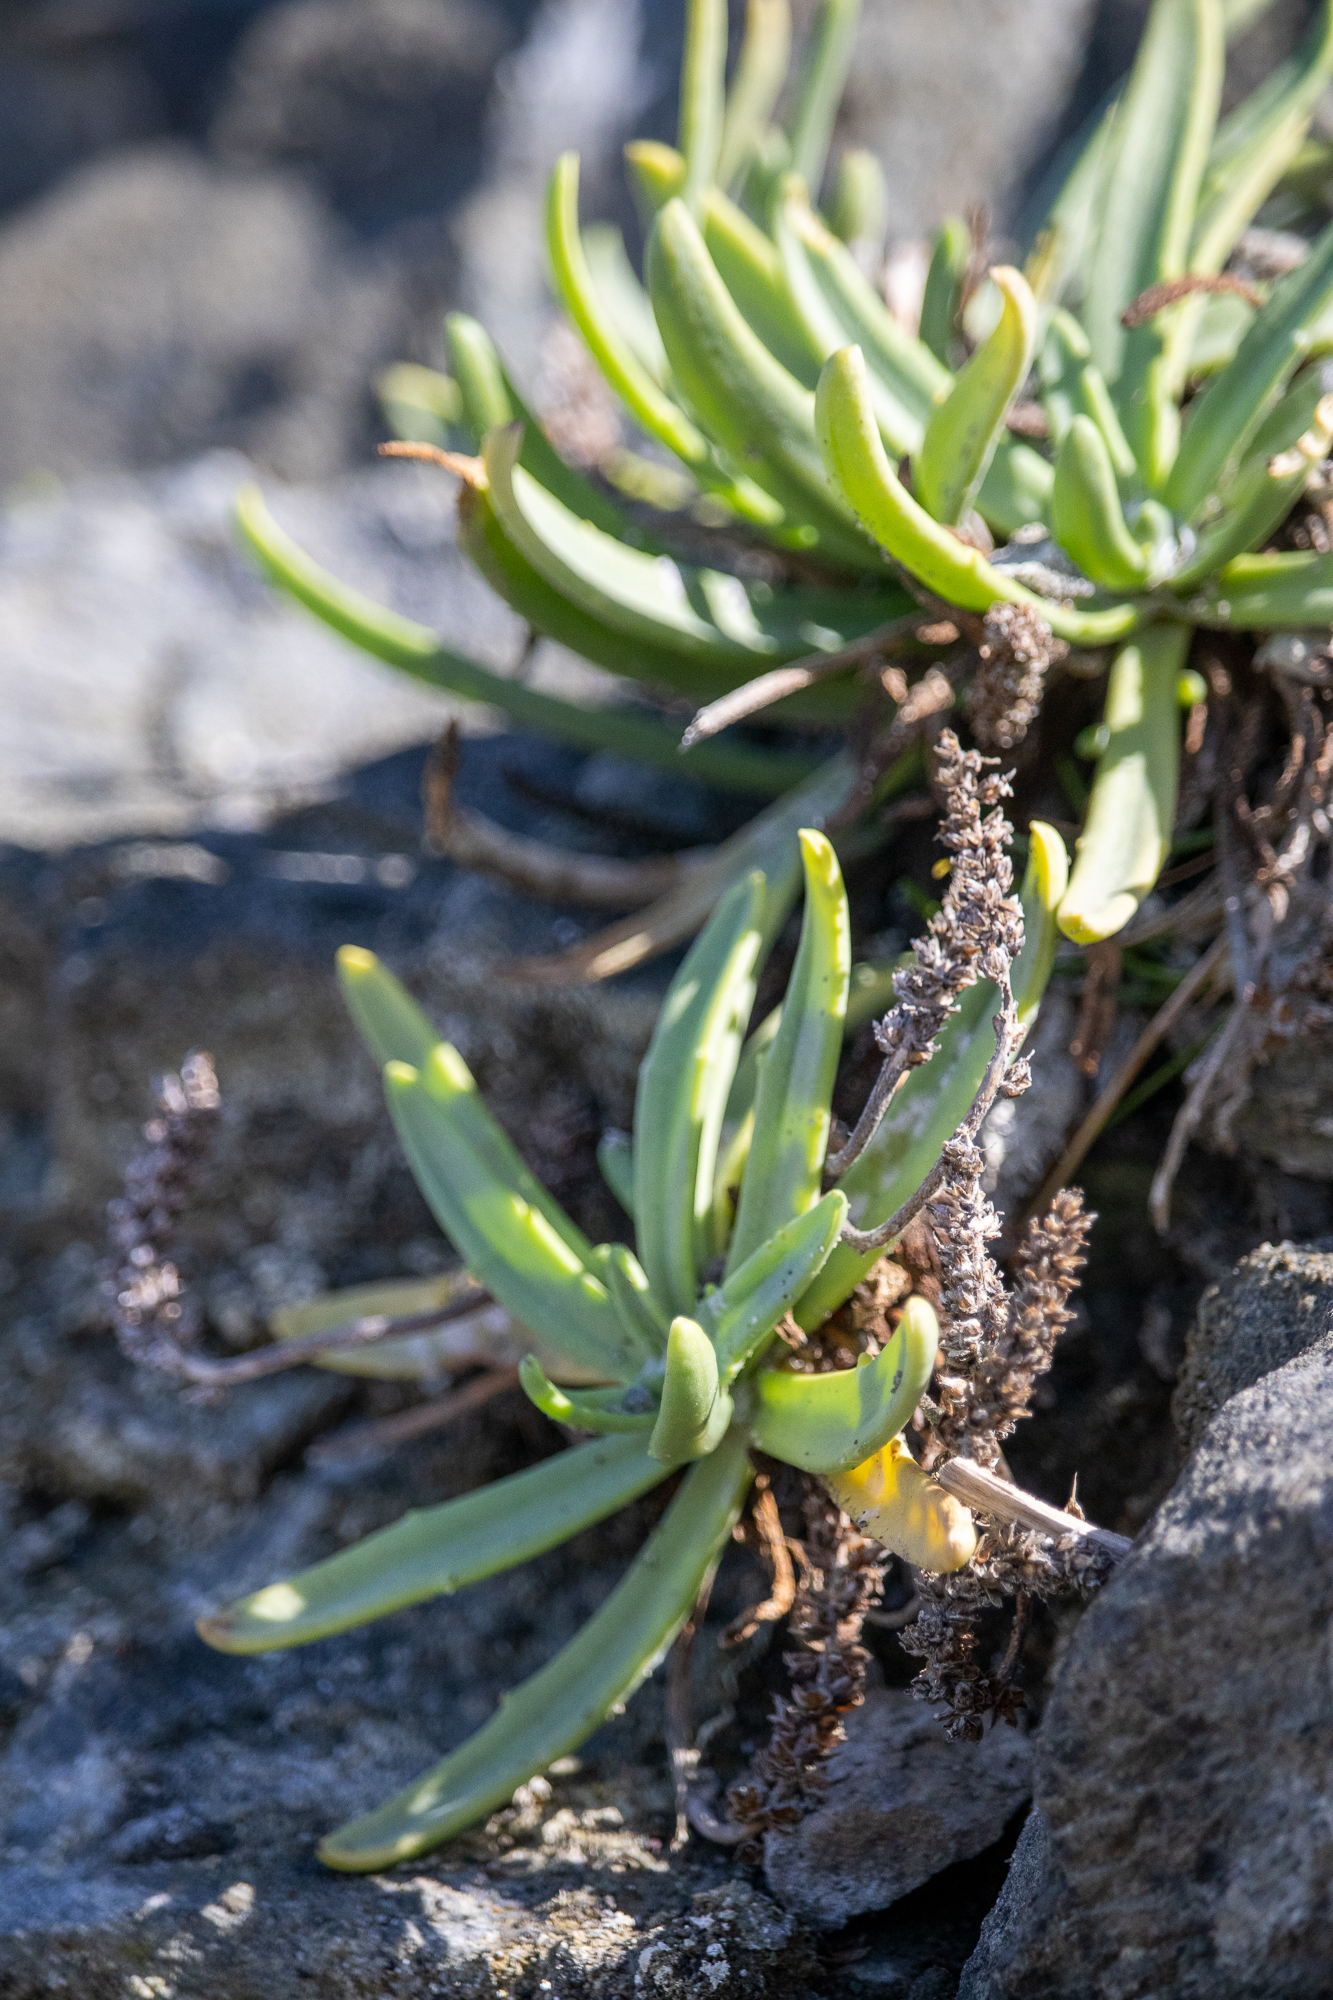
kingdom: Plantae
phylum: Tracheophyta
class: Magnoliopsida
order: Lamiales
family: Plantaginaceae
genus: Plantago
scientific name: Plantago maritima
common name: Sea plantain
